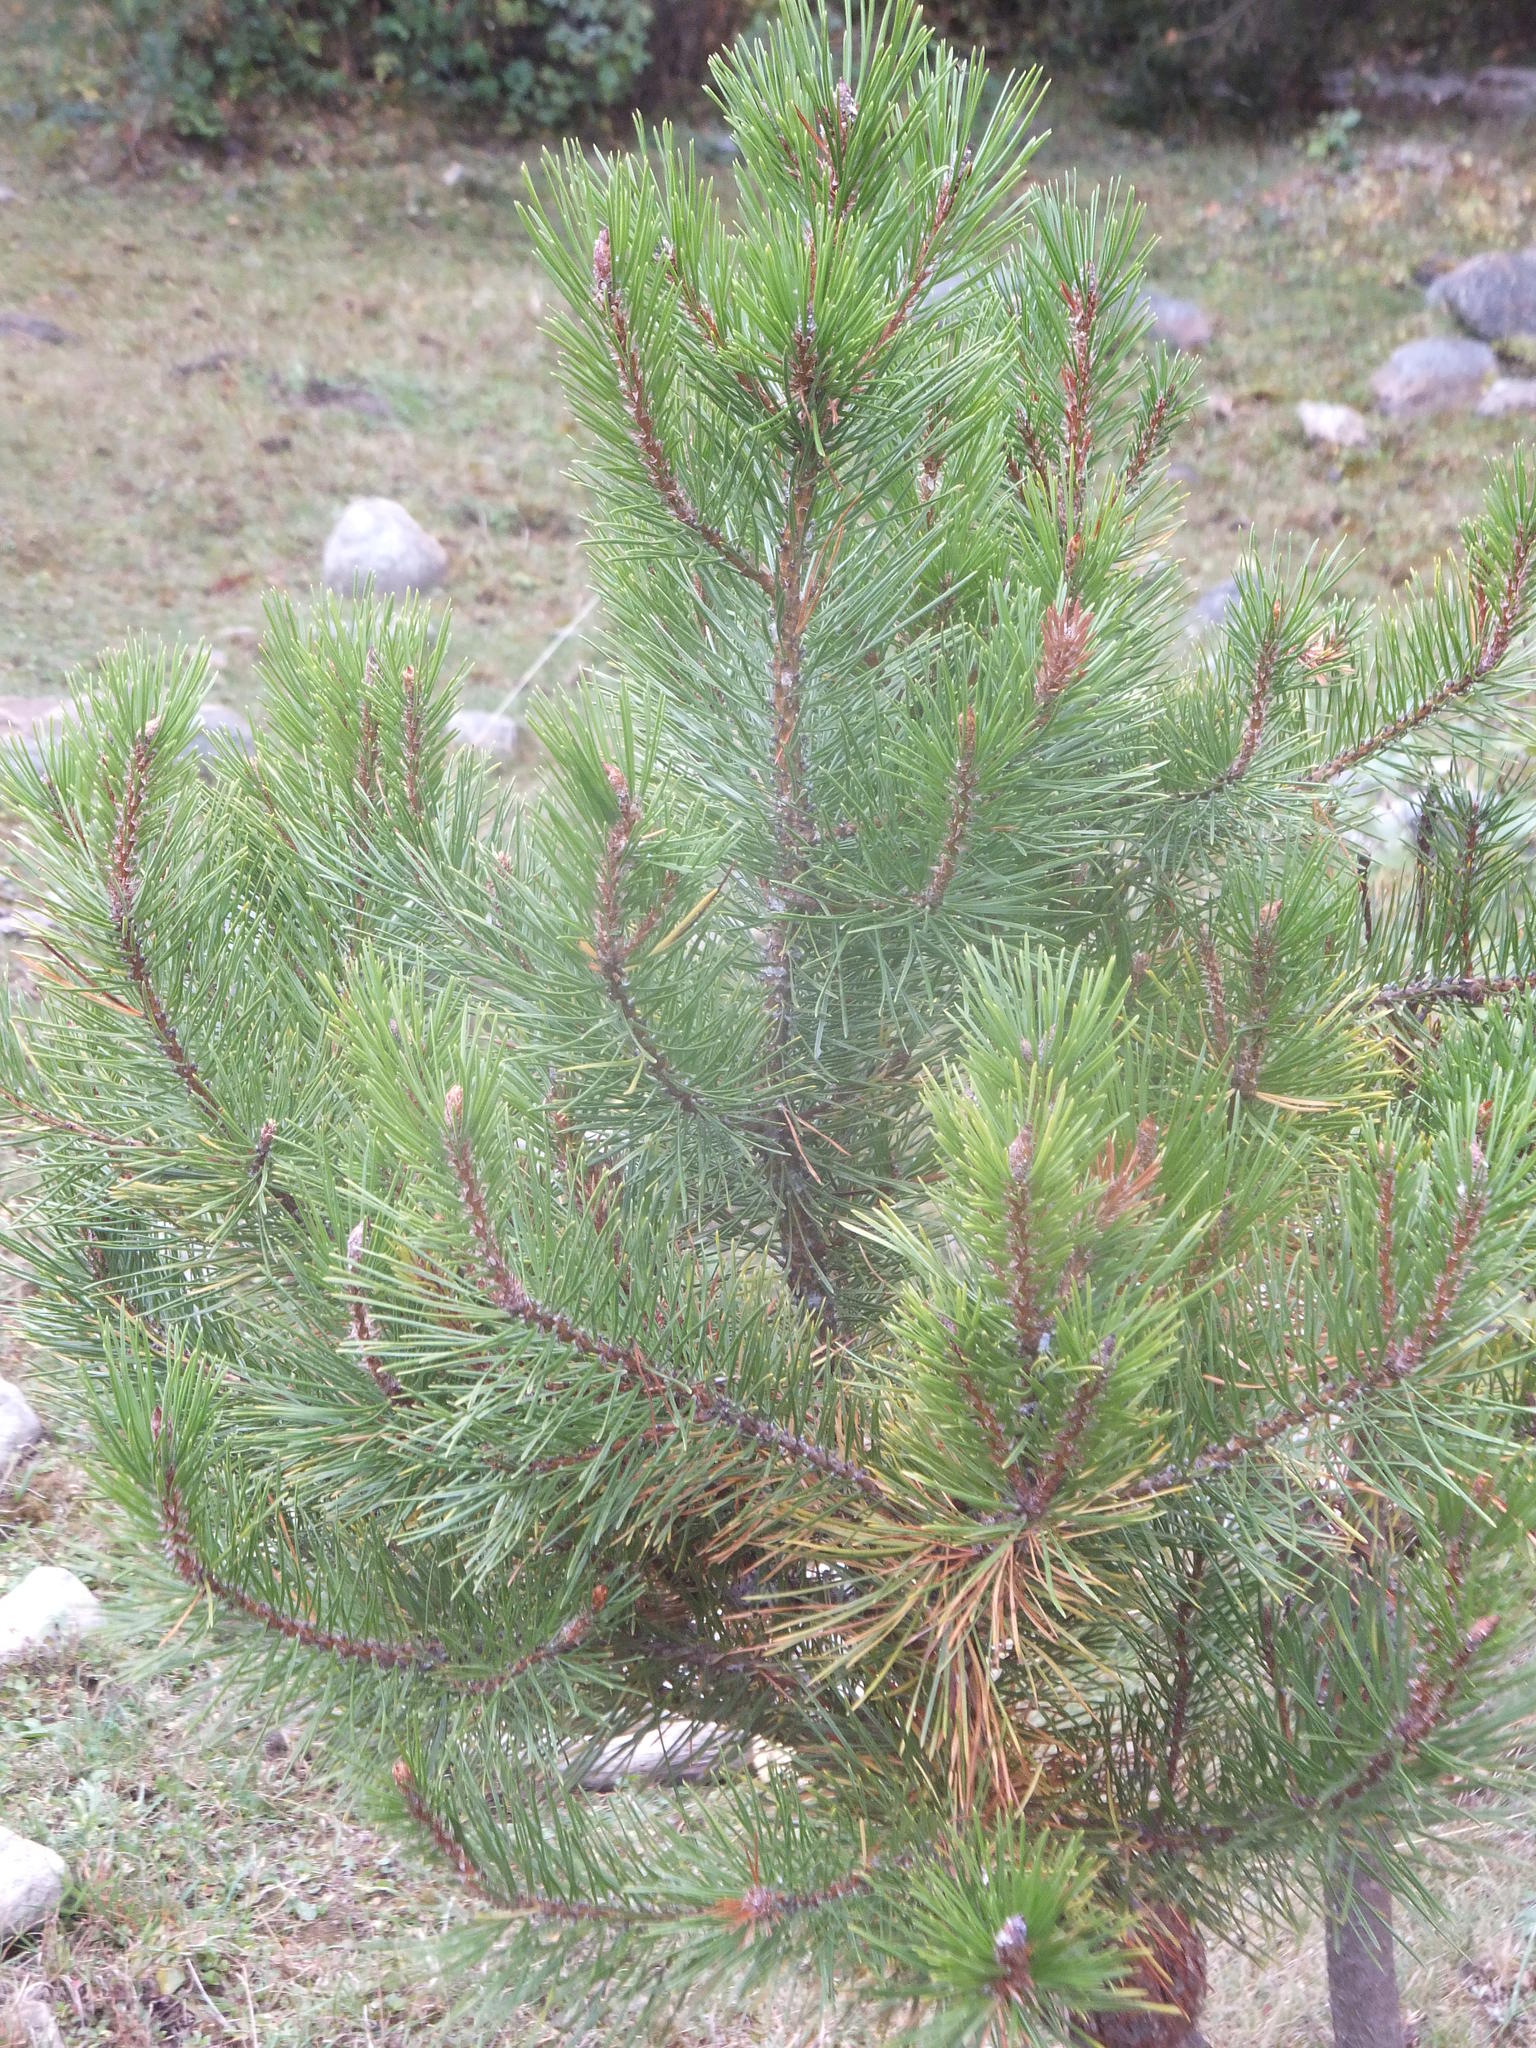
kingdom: Plantae
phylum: Tracheophyta
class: Pinopsida
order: Pinales
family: Pinaceae
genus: Pinus
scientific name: Pinus contorta
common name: Lodgepole pine
